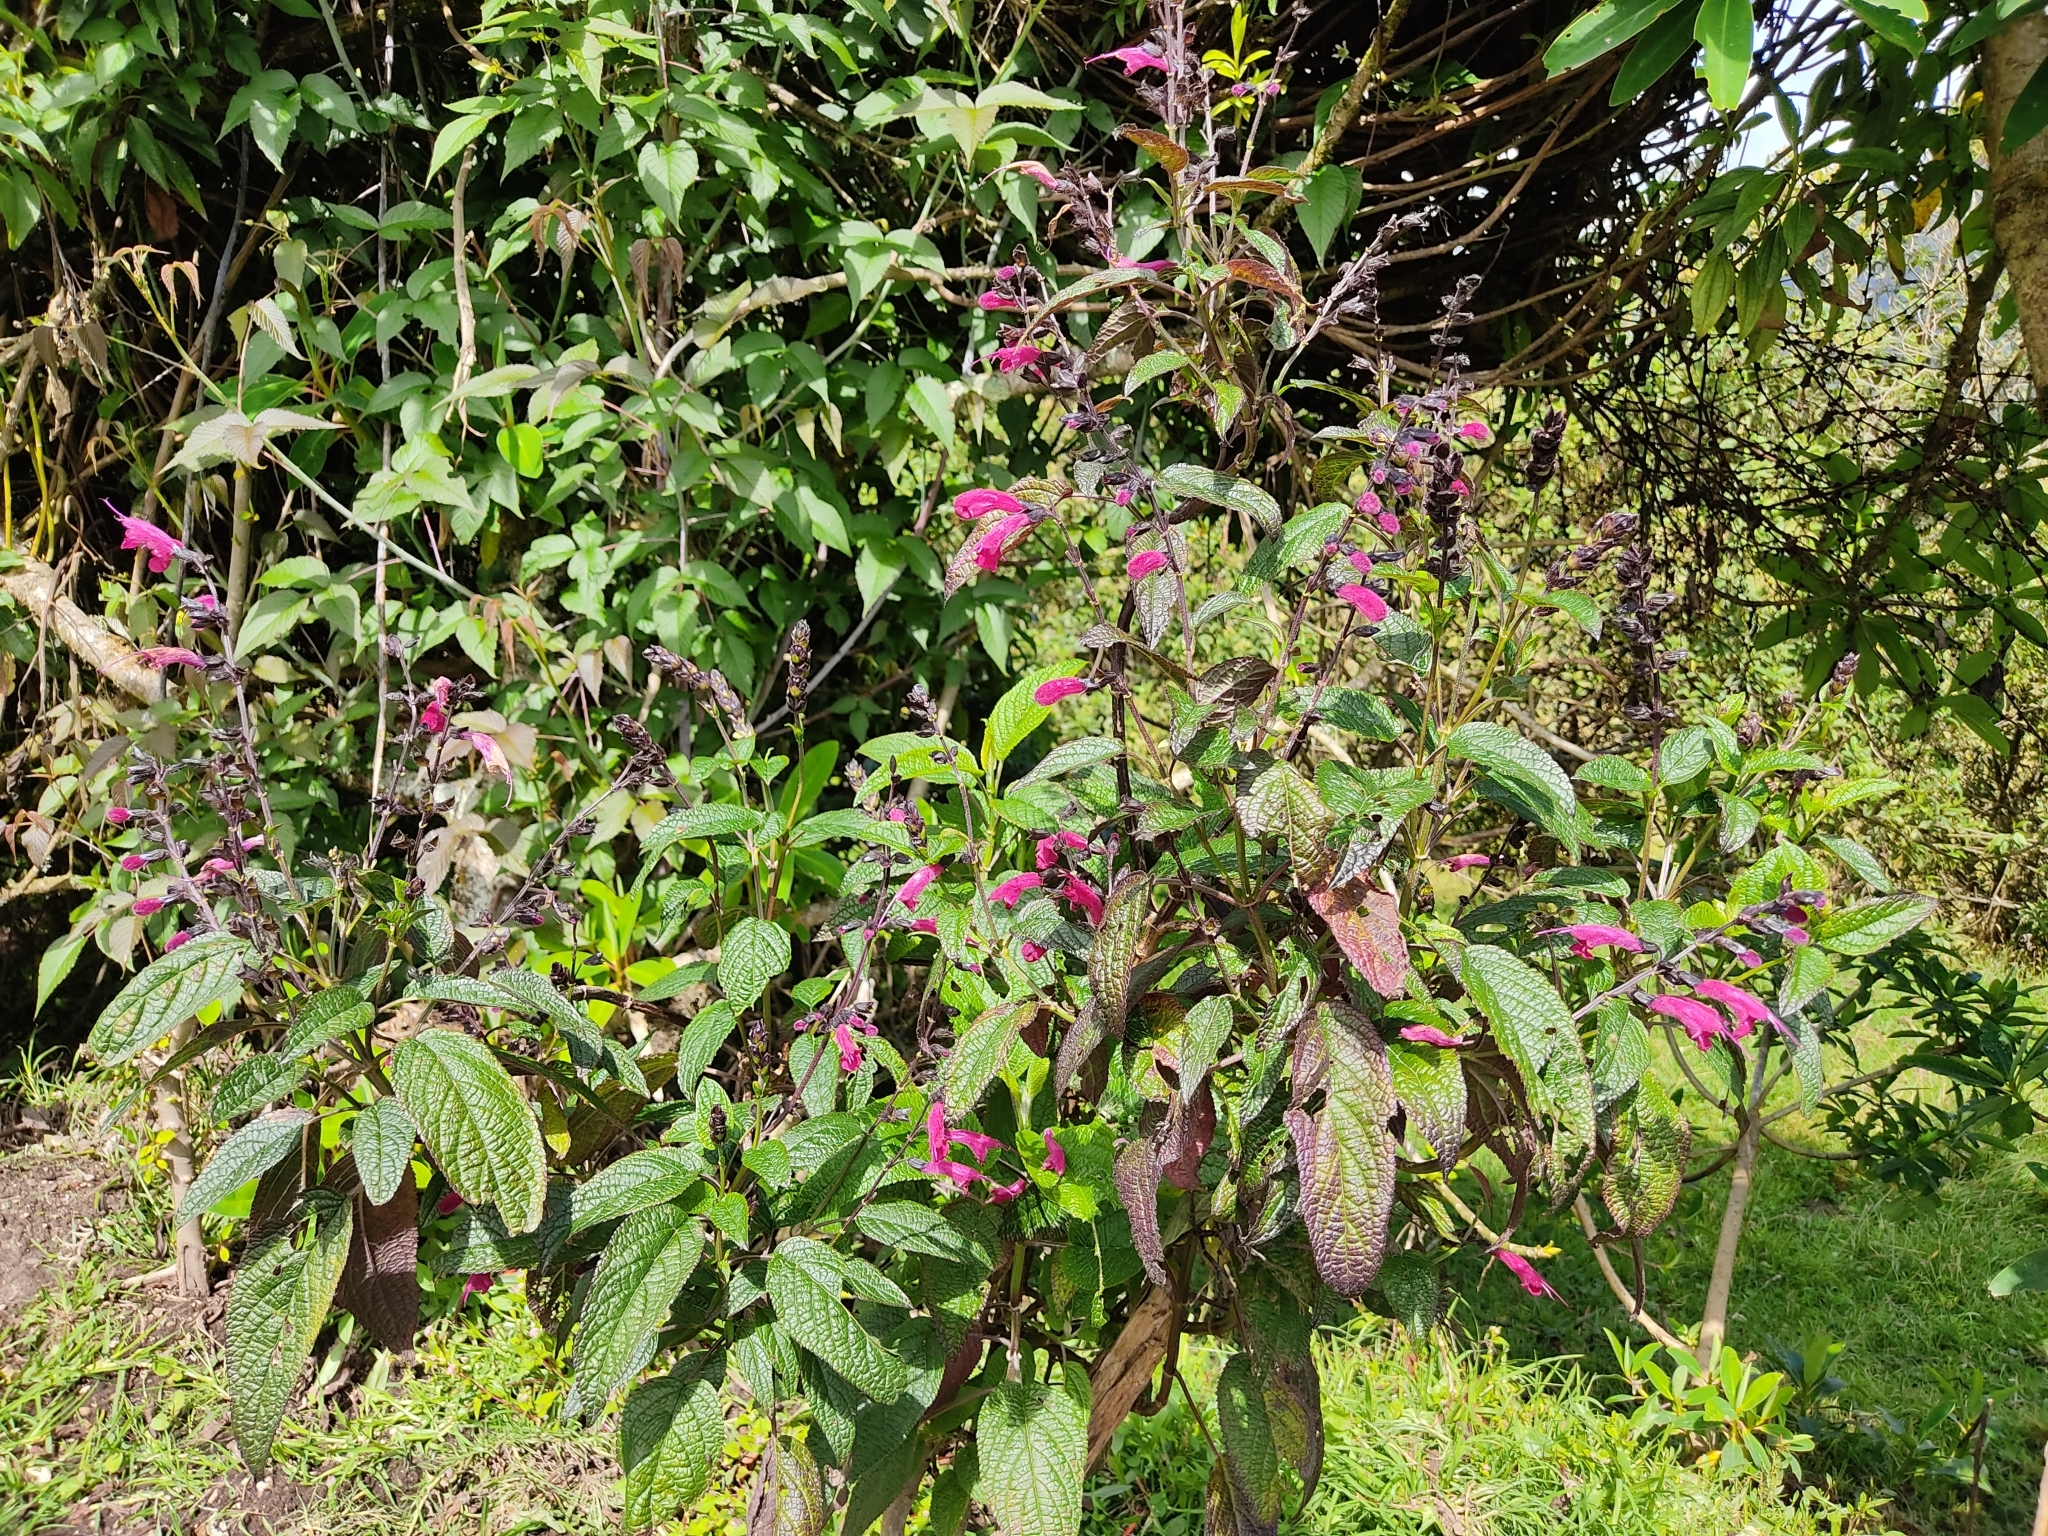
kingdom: Plantae
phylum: Tracheophyta
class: Magnoliopsida
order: Lamiales
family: Lamiaceae
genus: Salvia
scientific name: Salvia quitensis
